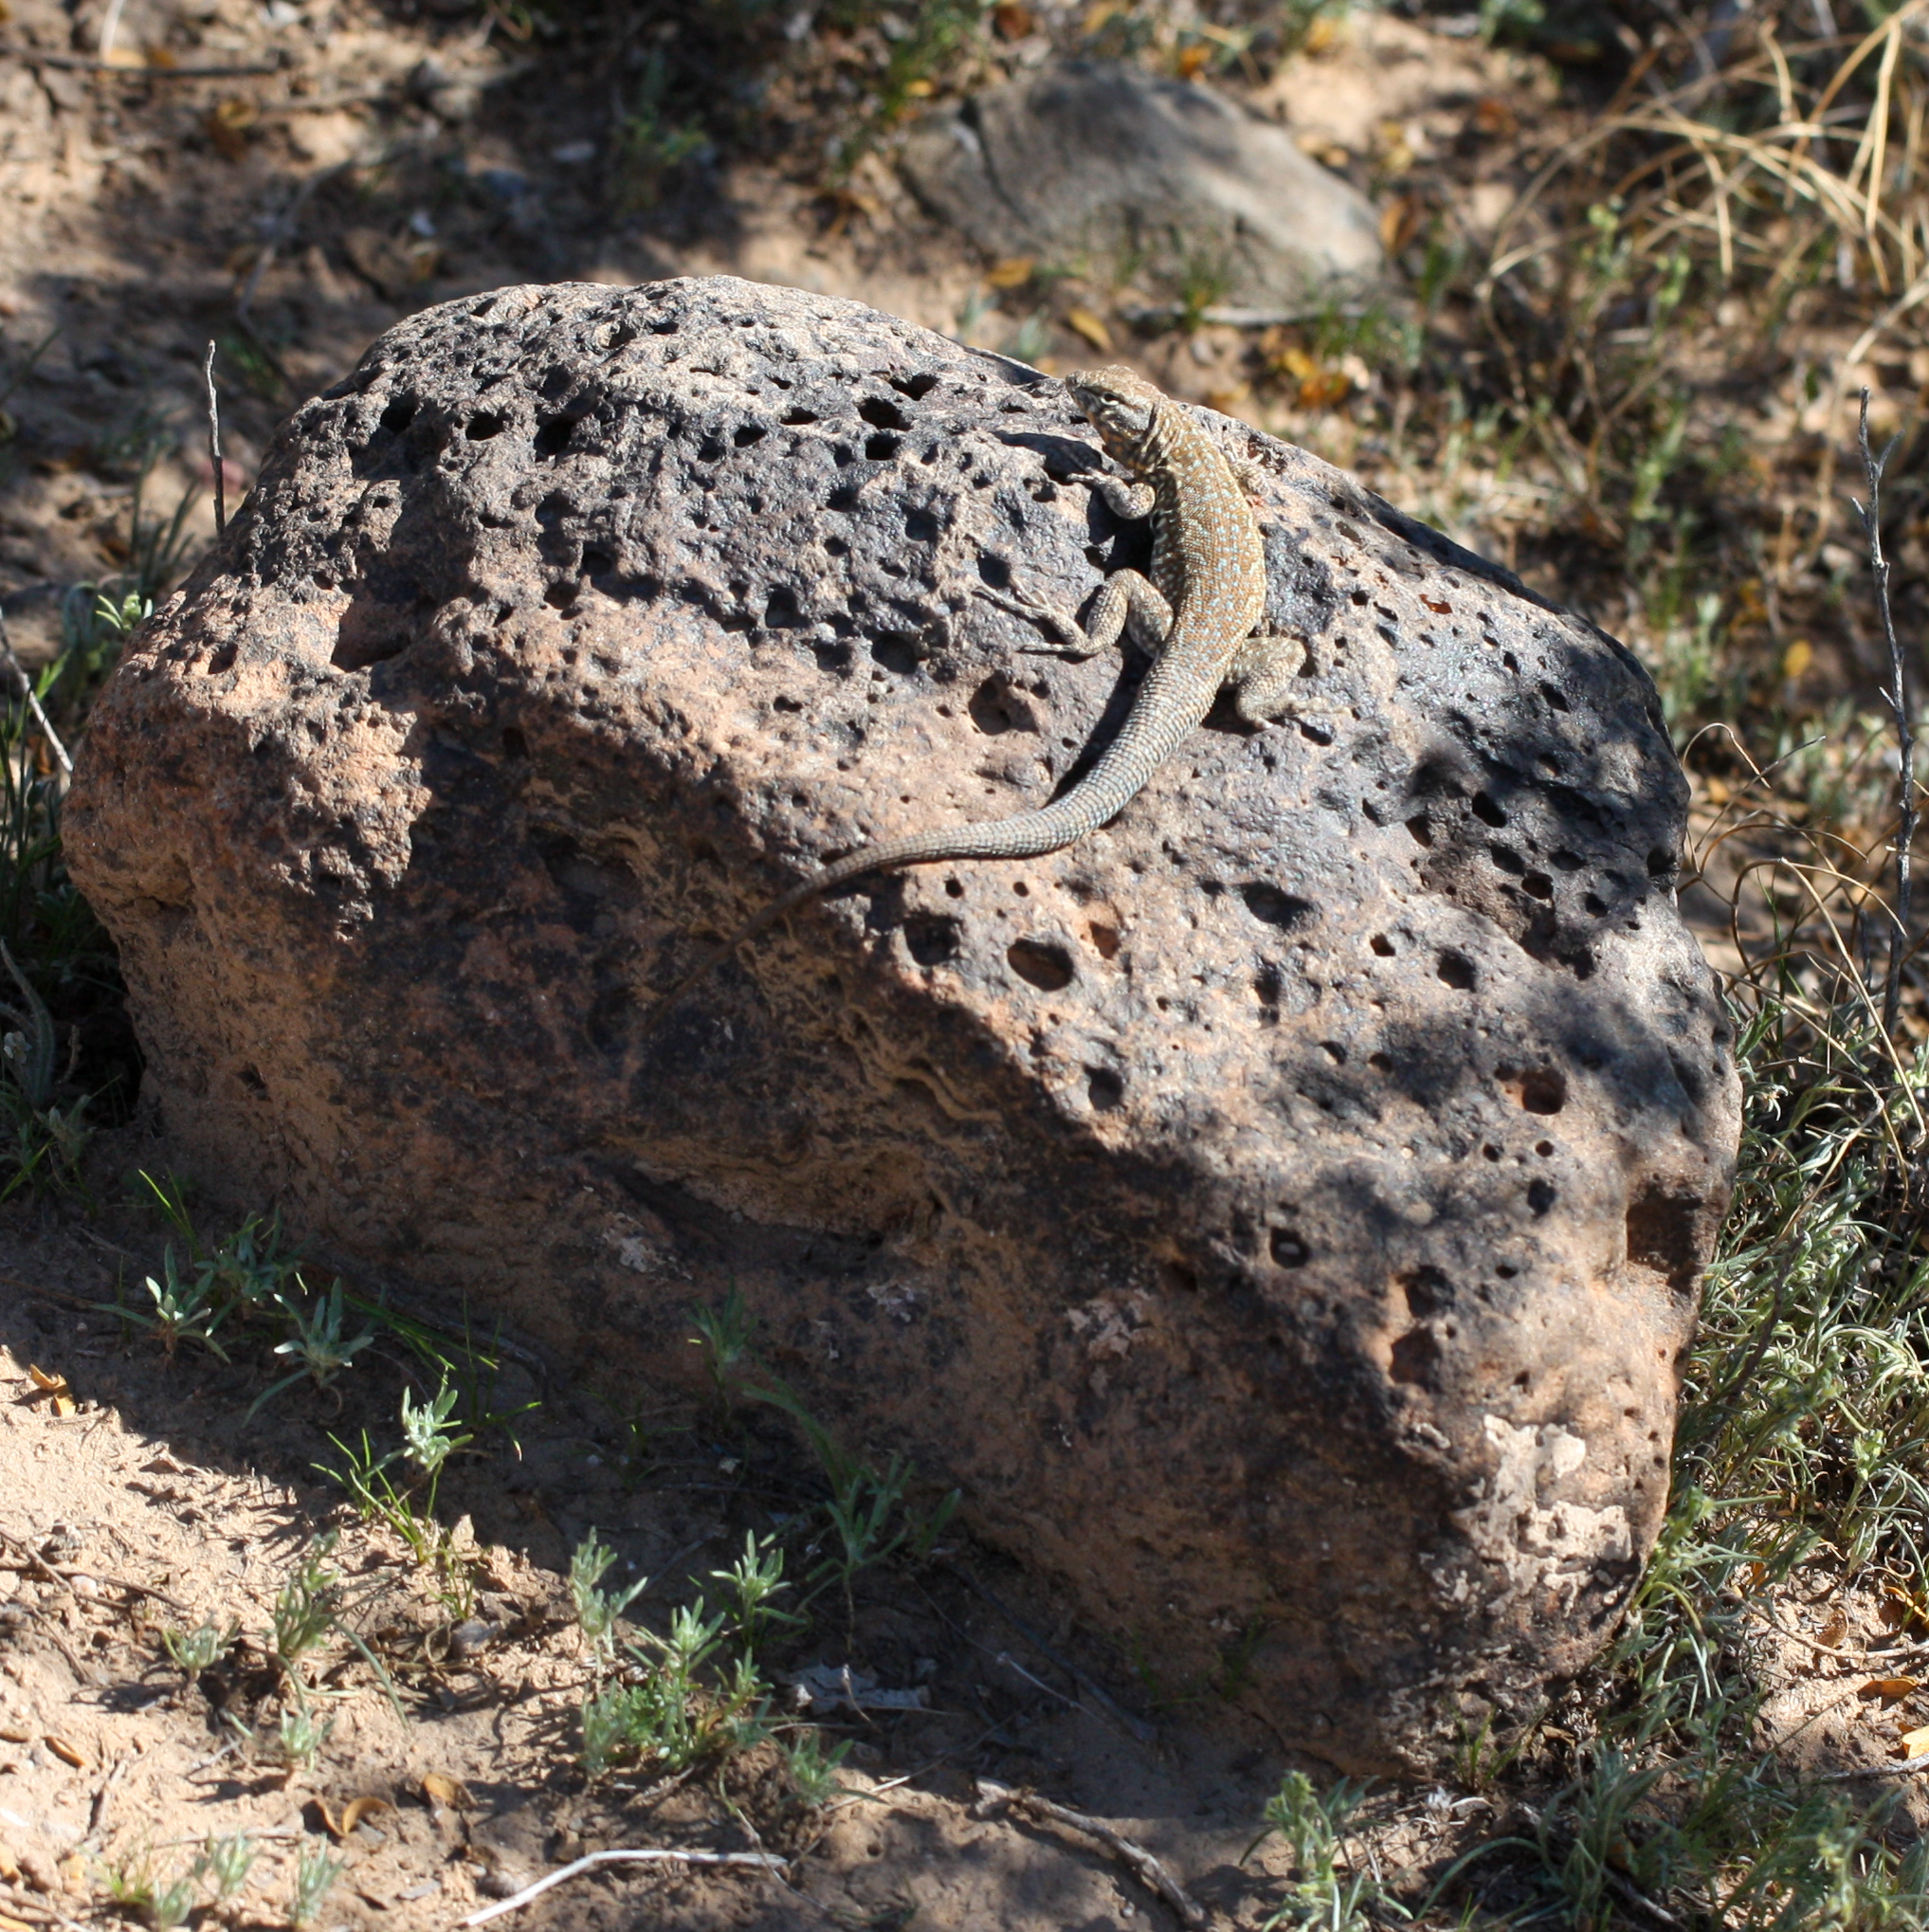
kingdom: Animalia
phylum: Chordata
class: Squamata
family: Phrynosomatidae
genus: Uta
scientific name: Uta stansburiana
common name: Side-blotched lizard
